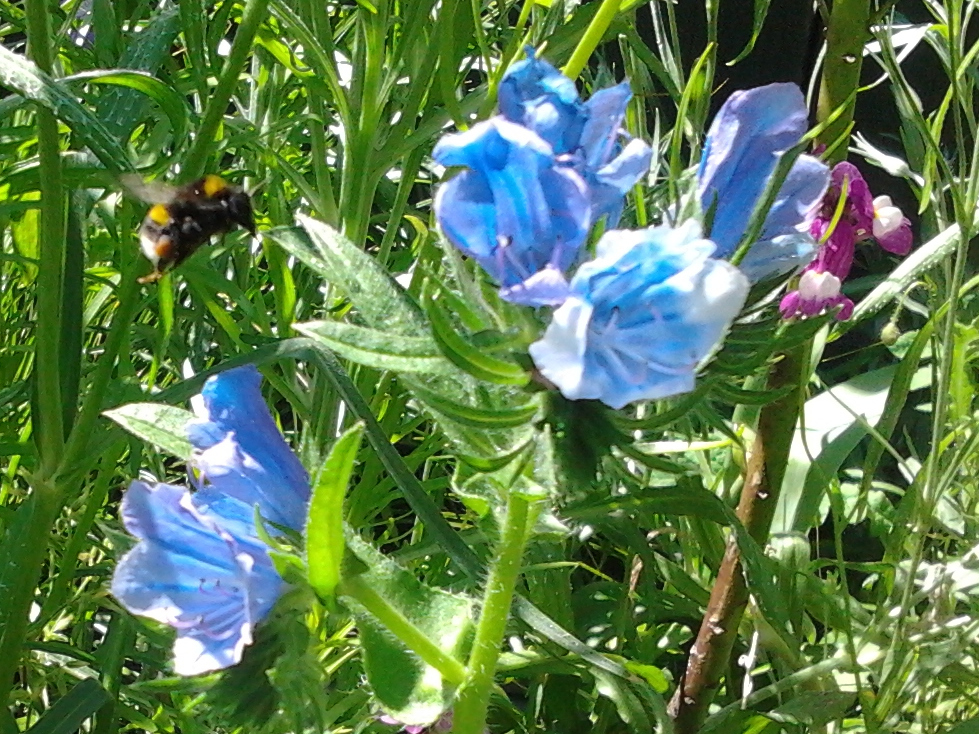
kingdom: Animalia
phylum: Arthropoda
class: Insecta
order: Hymenoptera
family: Apidae
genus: Bombus
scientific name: Bombus terrestris
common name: Buff-tailed bumblebee
